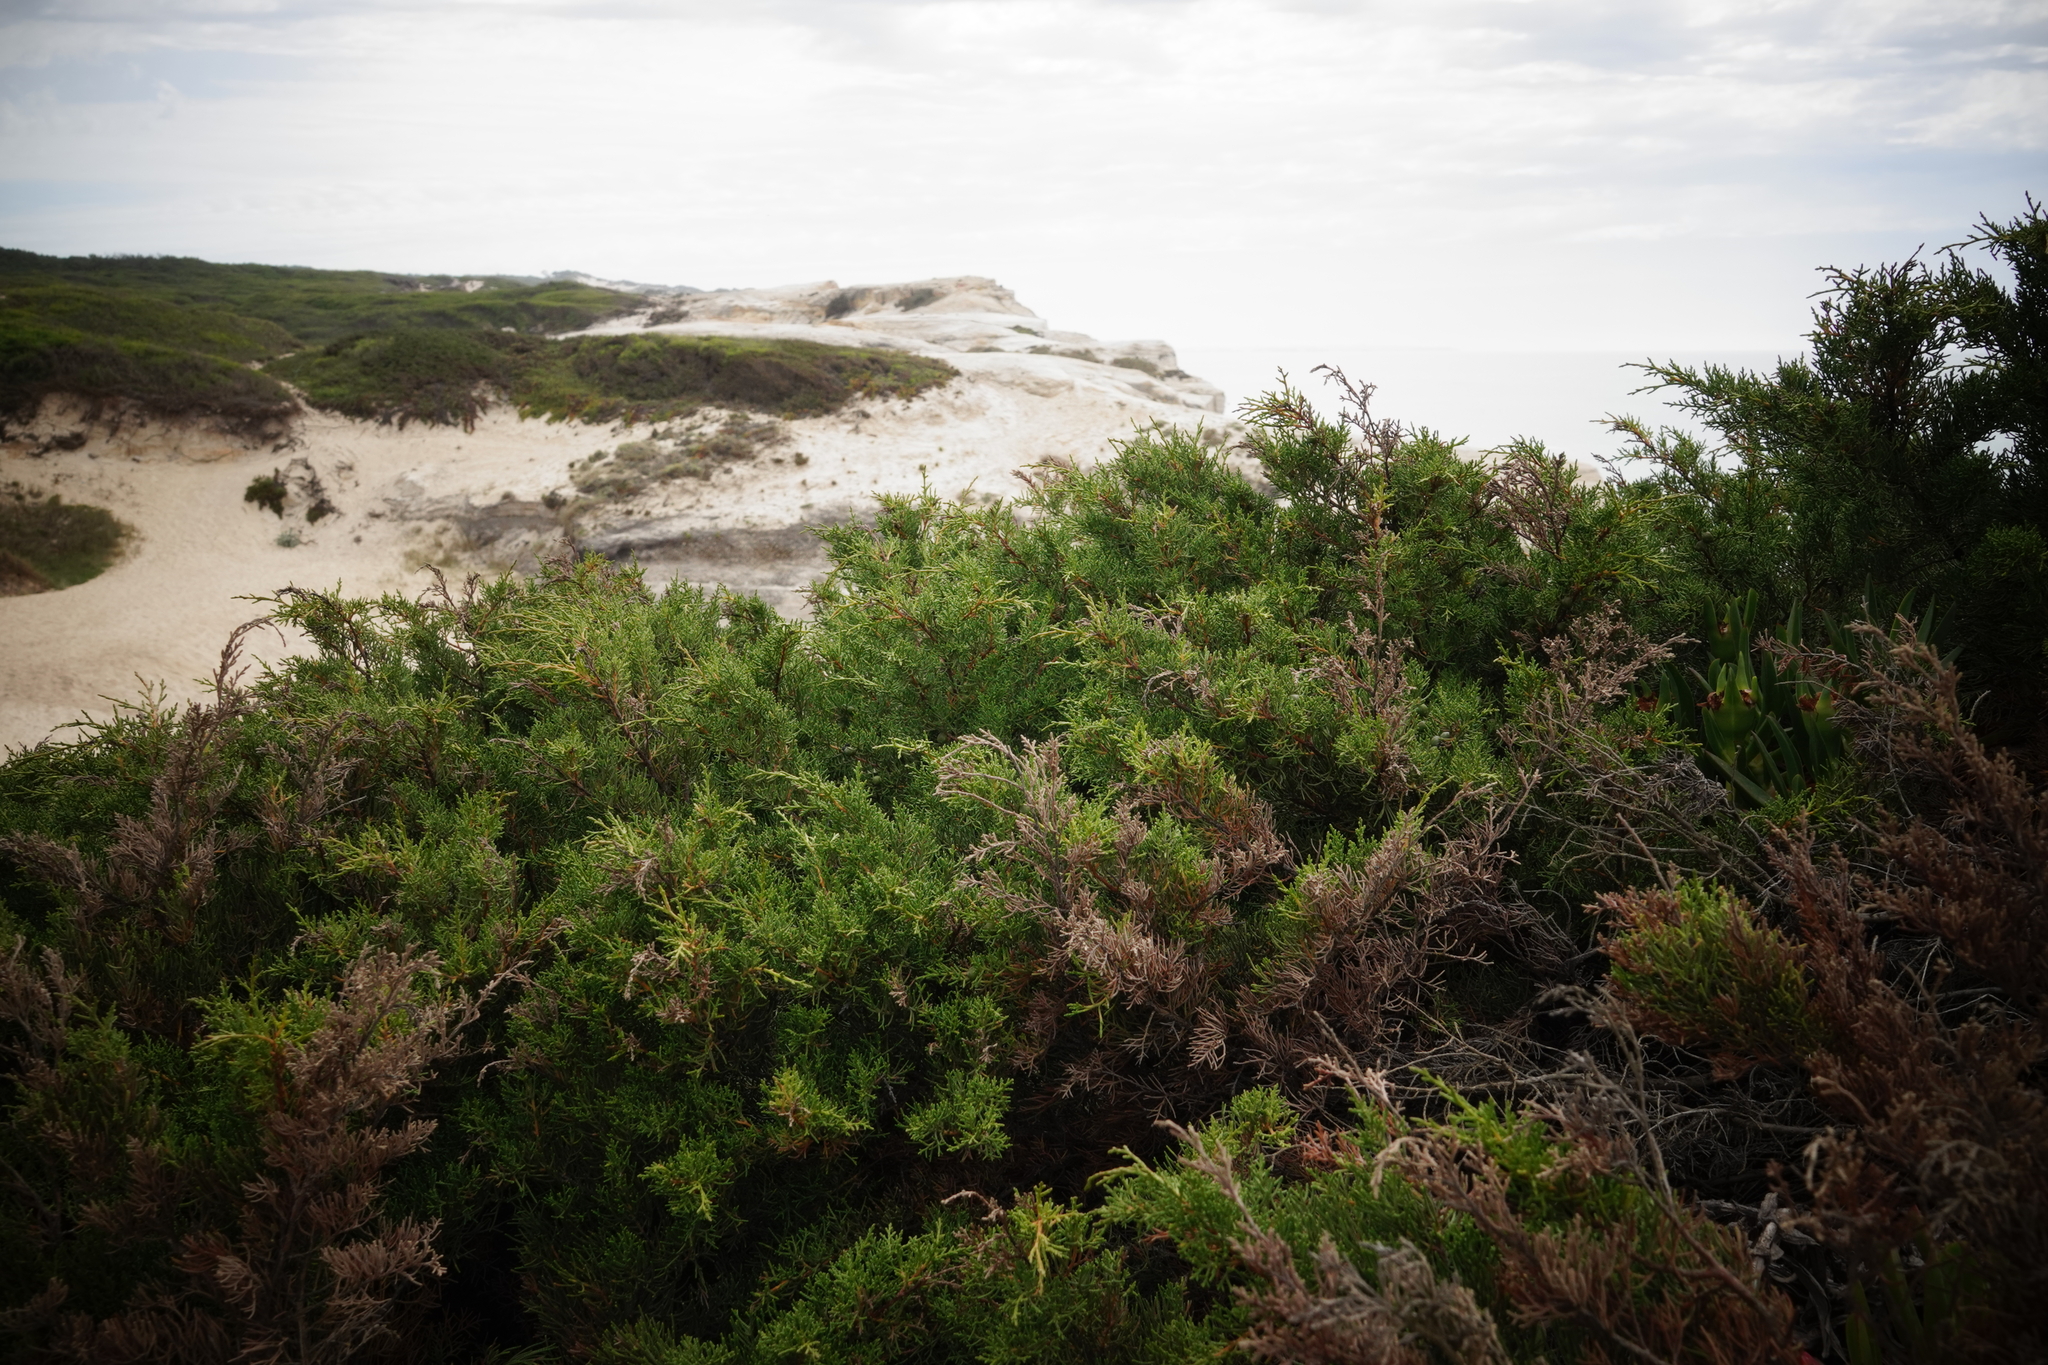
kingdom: Plantae
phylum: Tracheophyta
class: Pinopsida
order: Pinales
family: Cupressaceae
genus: Juniperus
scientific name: Juniperus phoenicea
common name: Phoenician juniper
